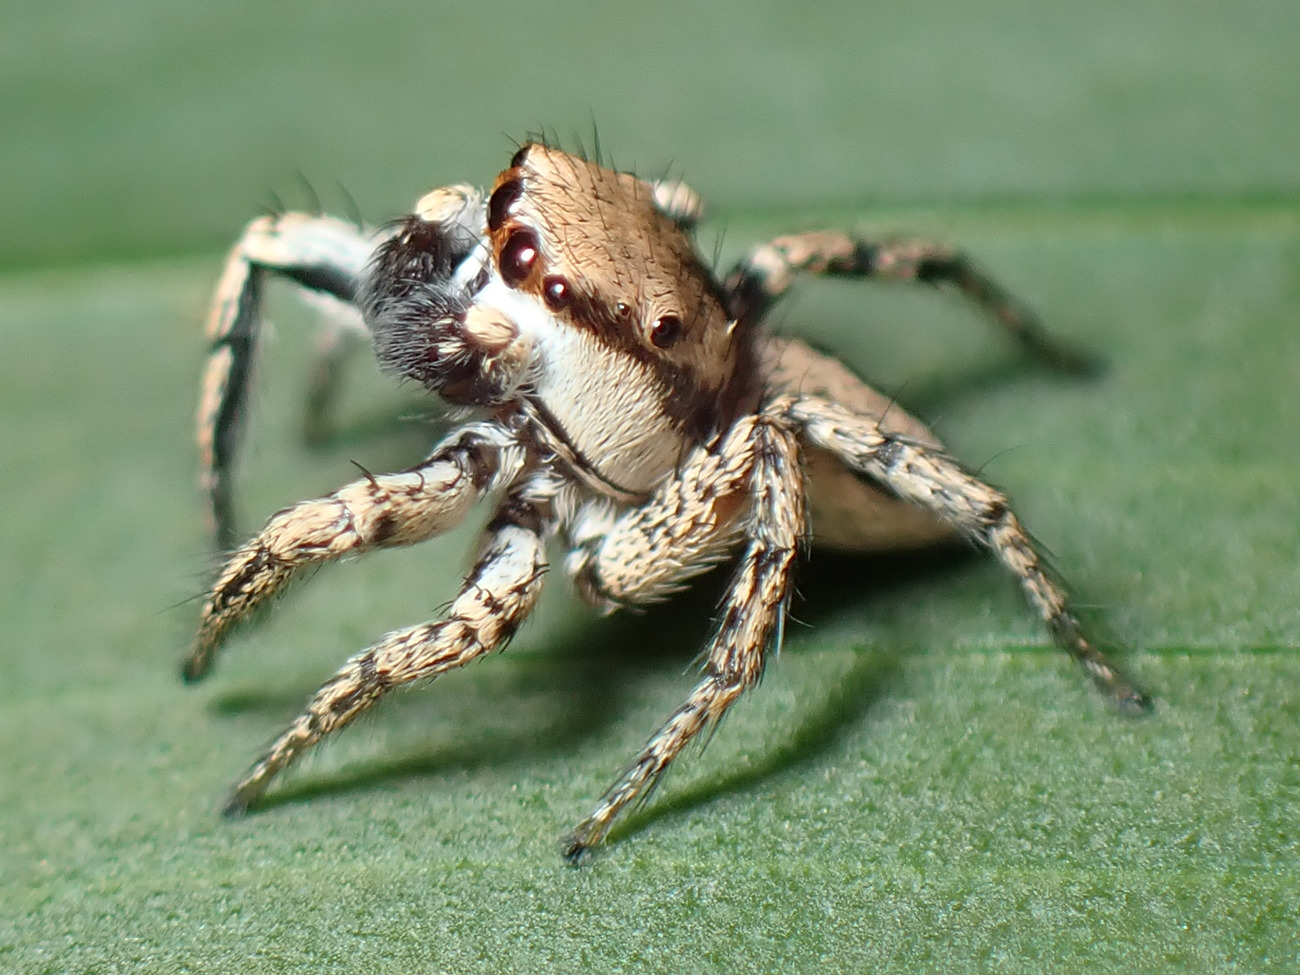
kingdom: Animalia
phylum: Arthropoda
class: Arachnida
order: Araneae
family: Salticidae
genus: Habronattus
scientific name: Habronattus banksi
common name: Jumping spiders
